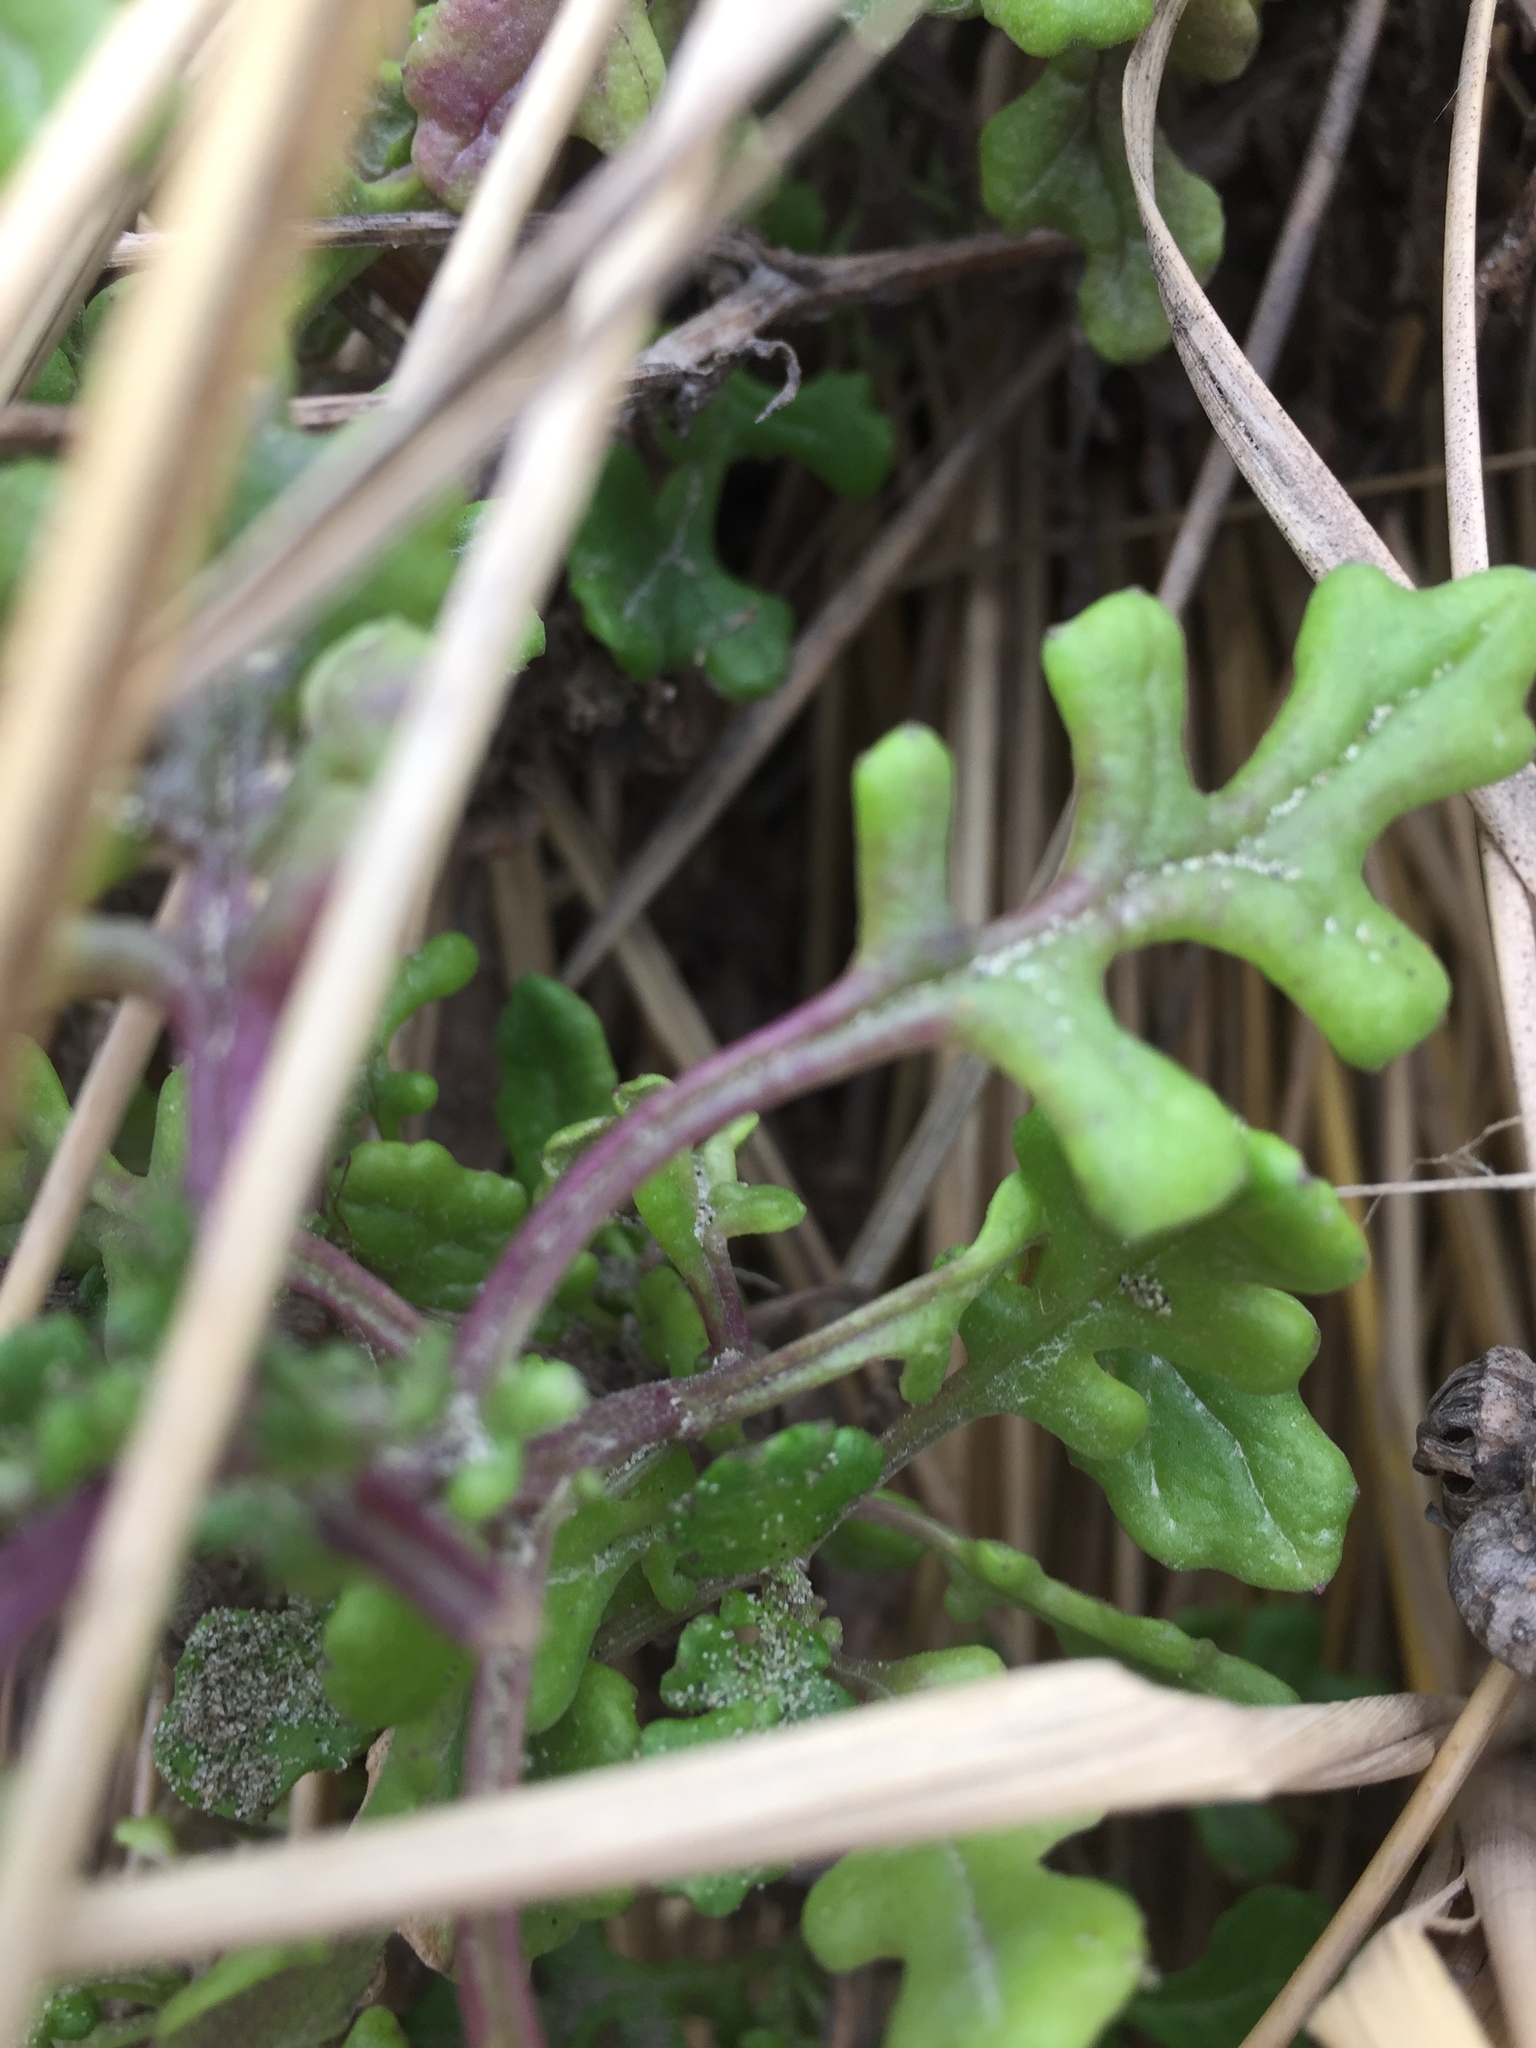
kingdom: Plantae
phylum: Tracheophyta
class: Magnoliopsida
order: Asterales
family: Asteraceae
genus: Senecio
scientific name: Senecio elegans
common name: Purple groundsel
